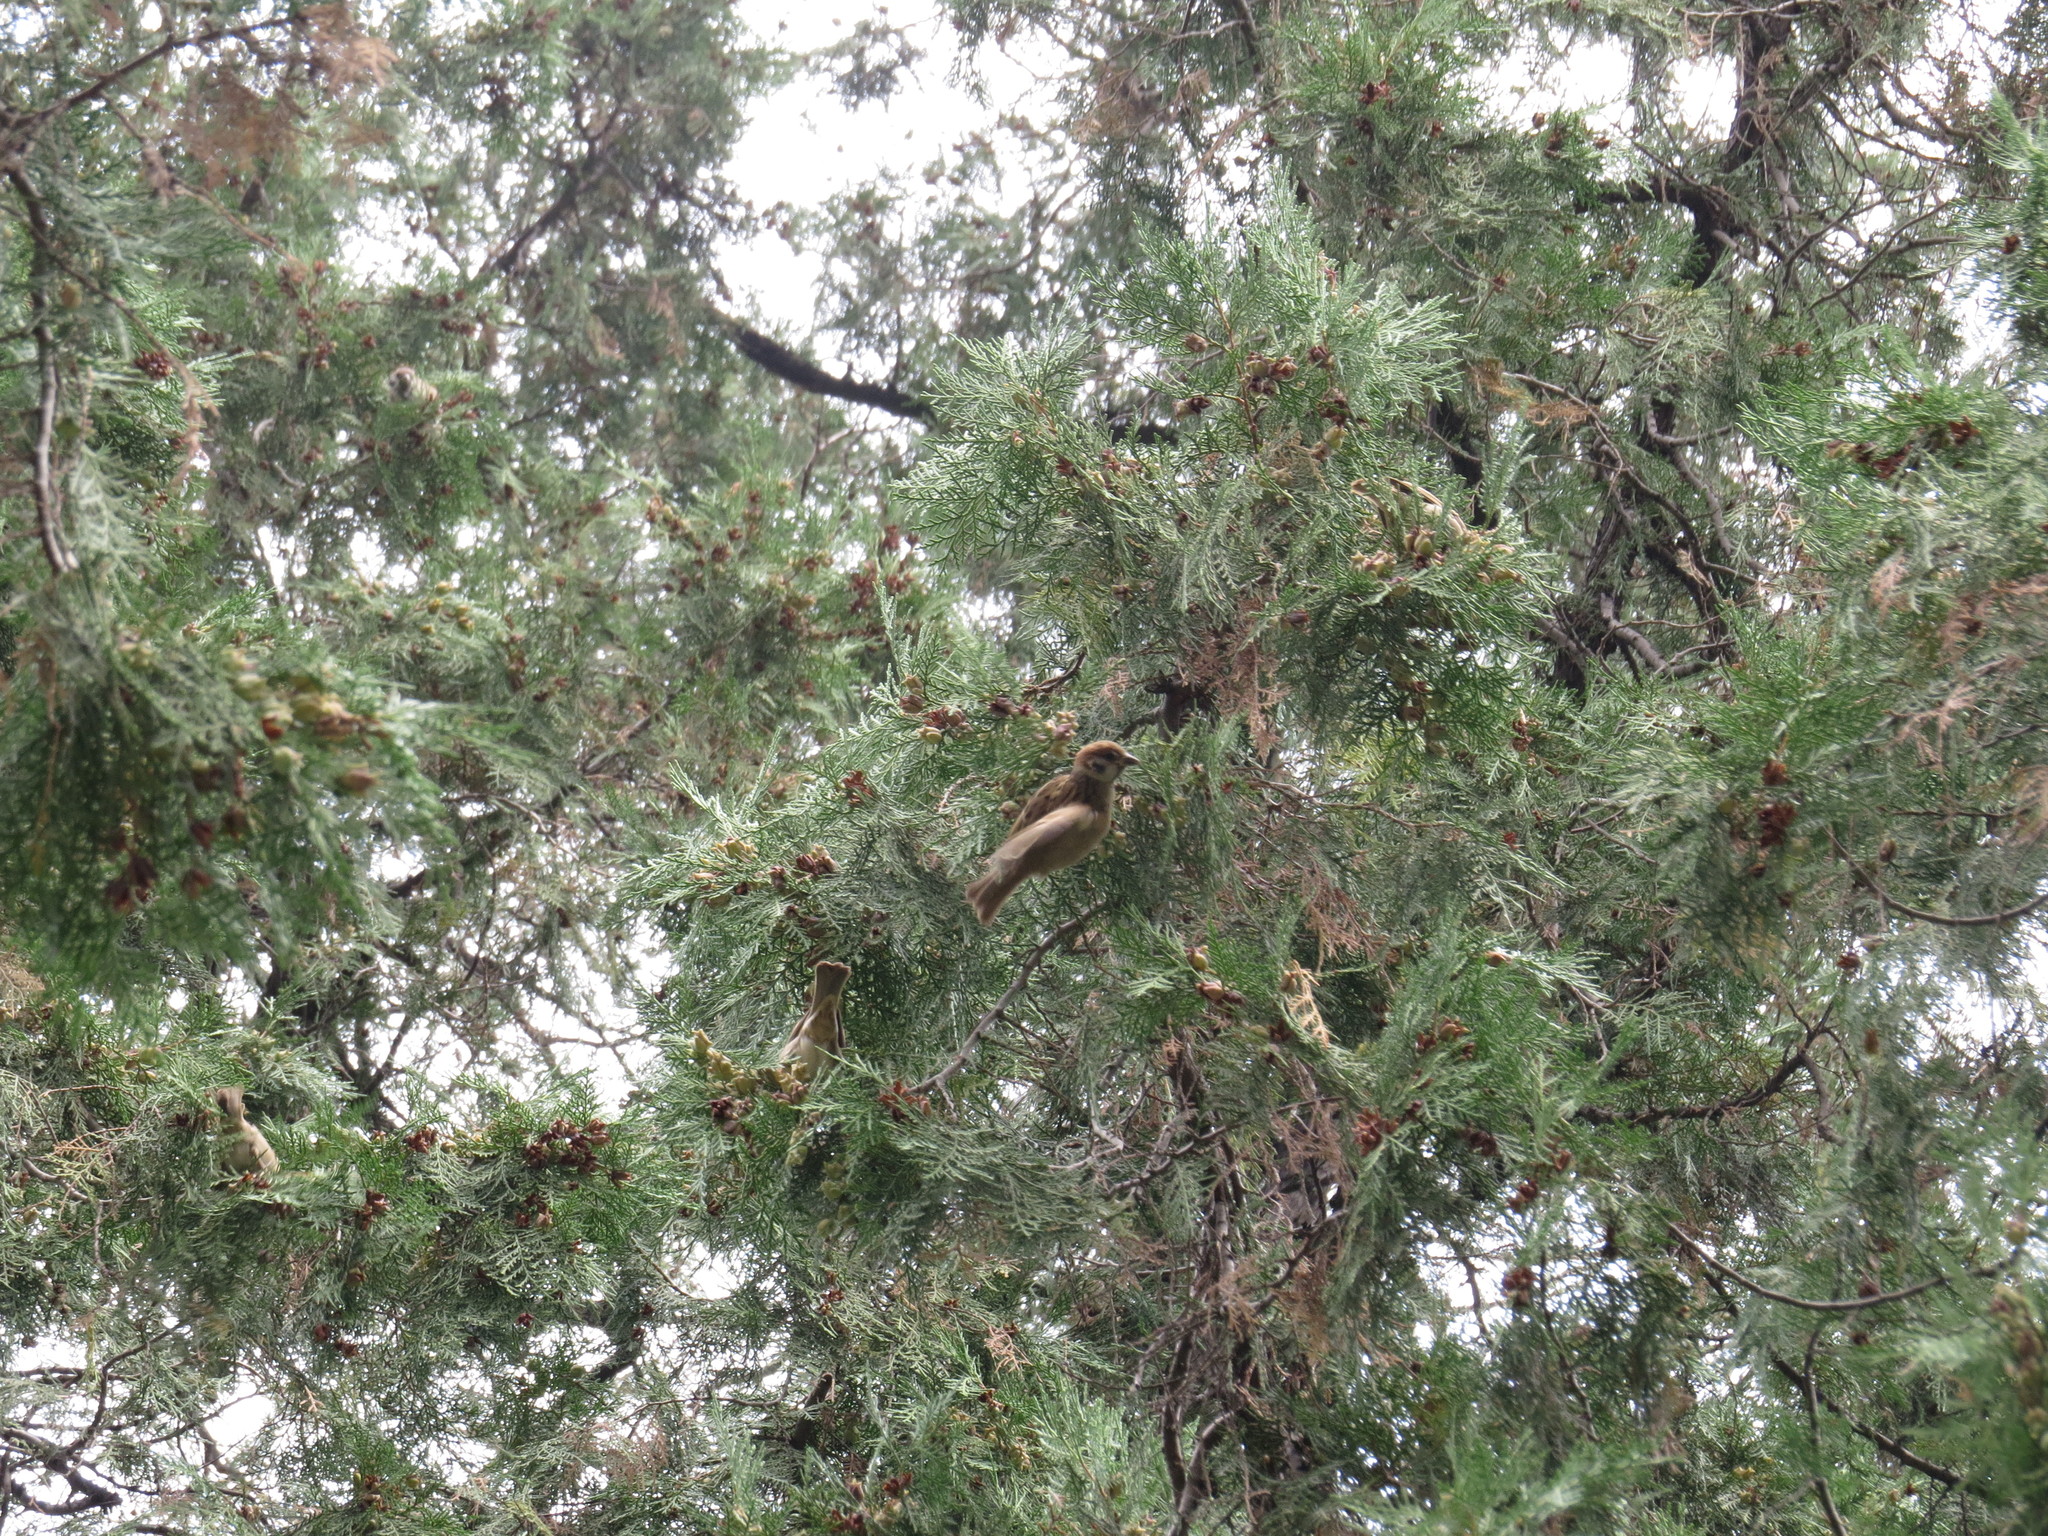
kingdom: Plantae
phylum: Tracheophyta
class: Pinopsida
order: Pinales
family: Cupressaceae
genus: Platycladus
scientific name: Platycladus orientalis
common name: Chinese thuja
